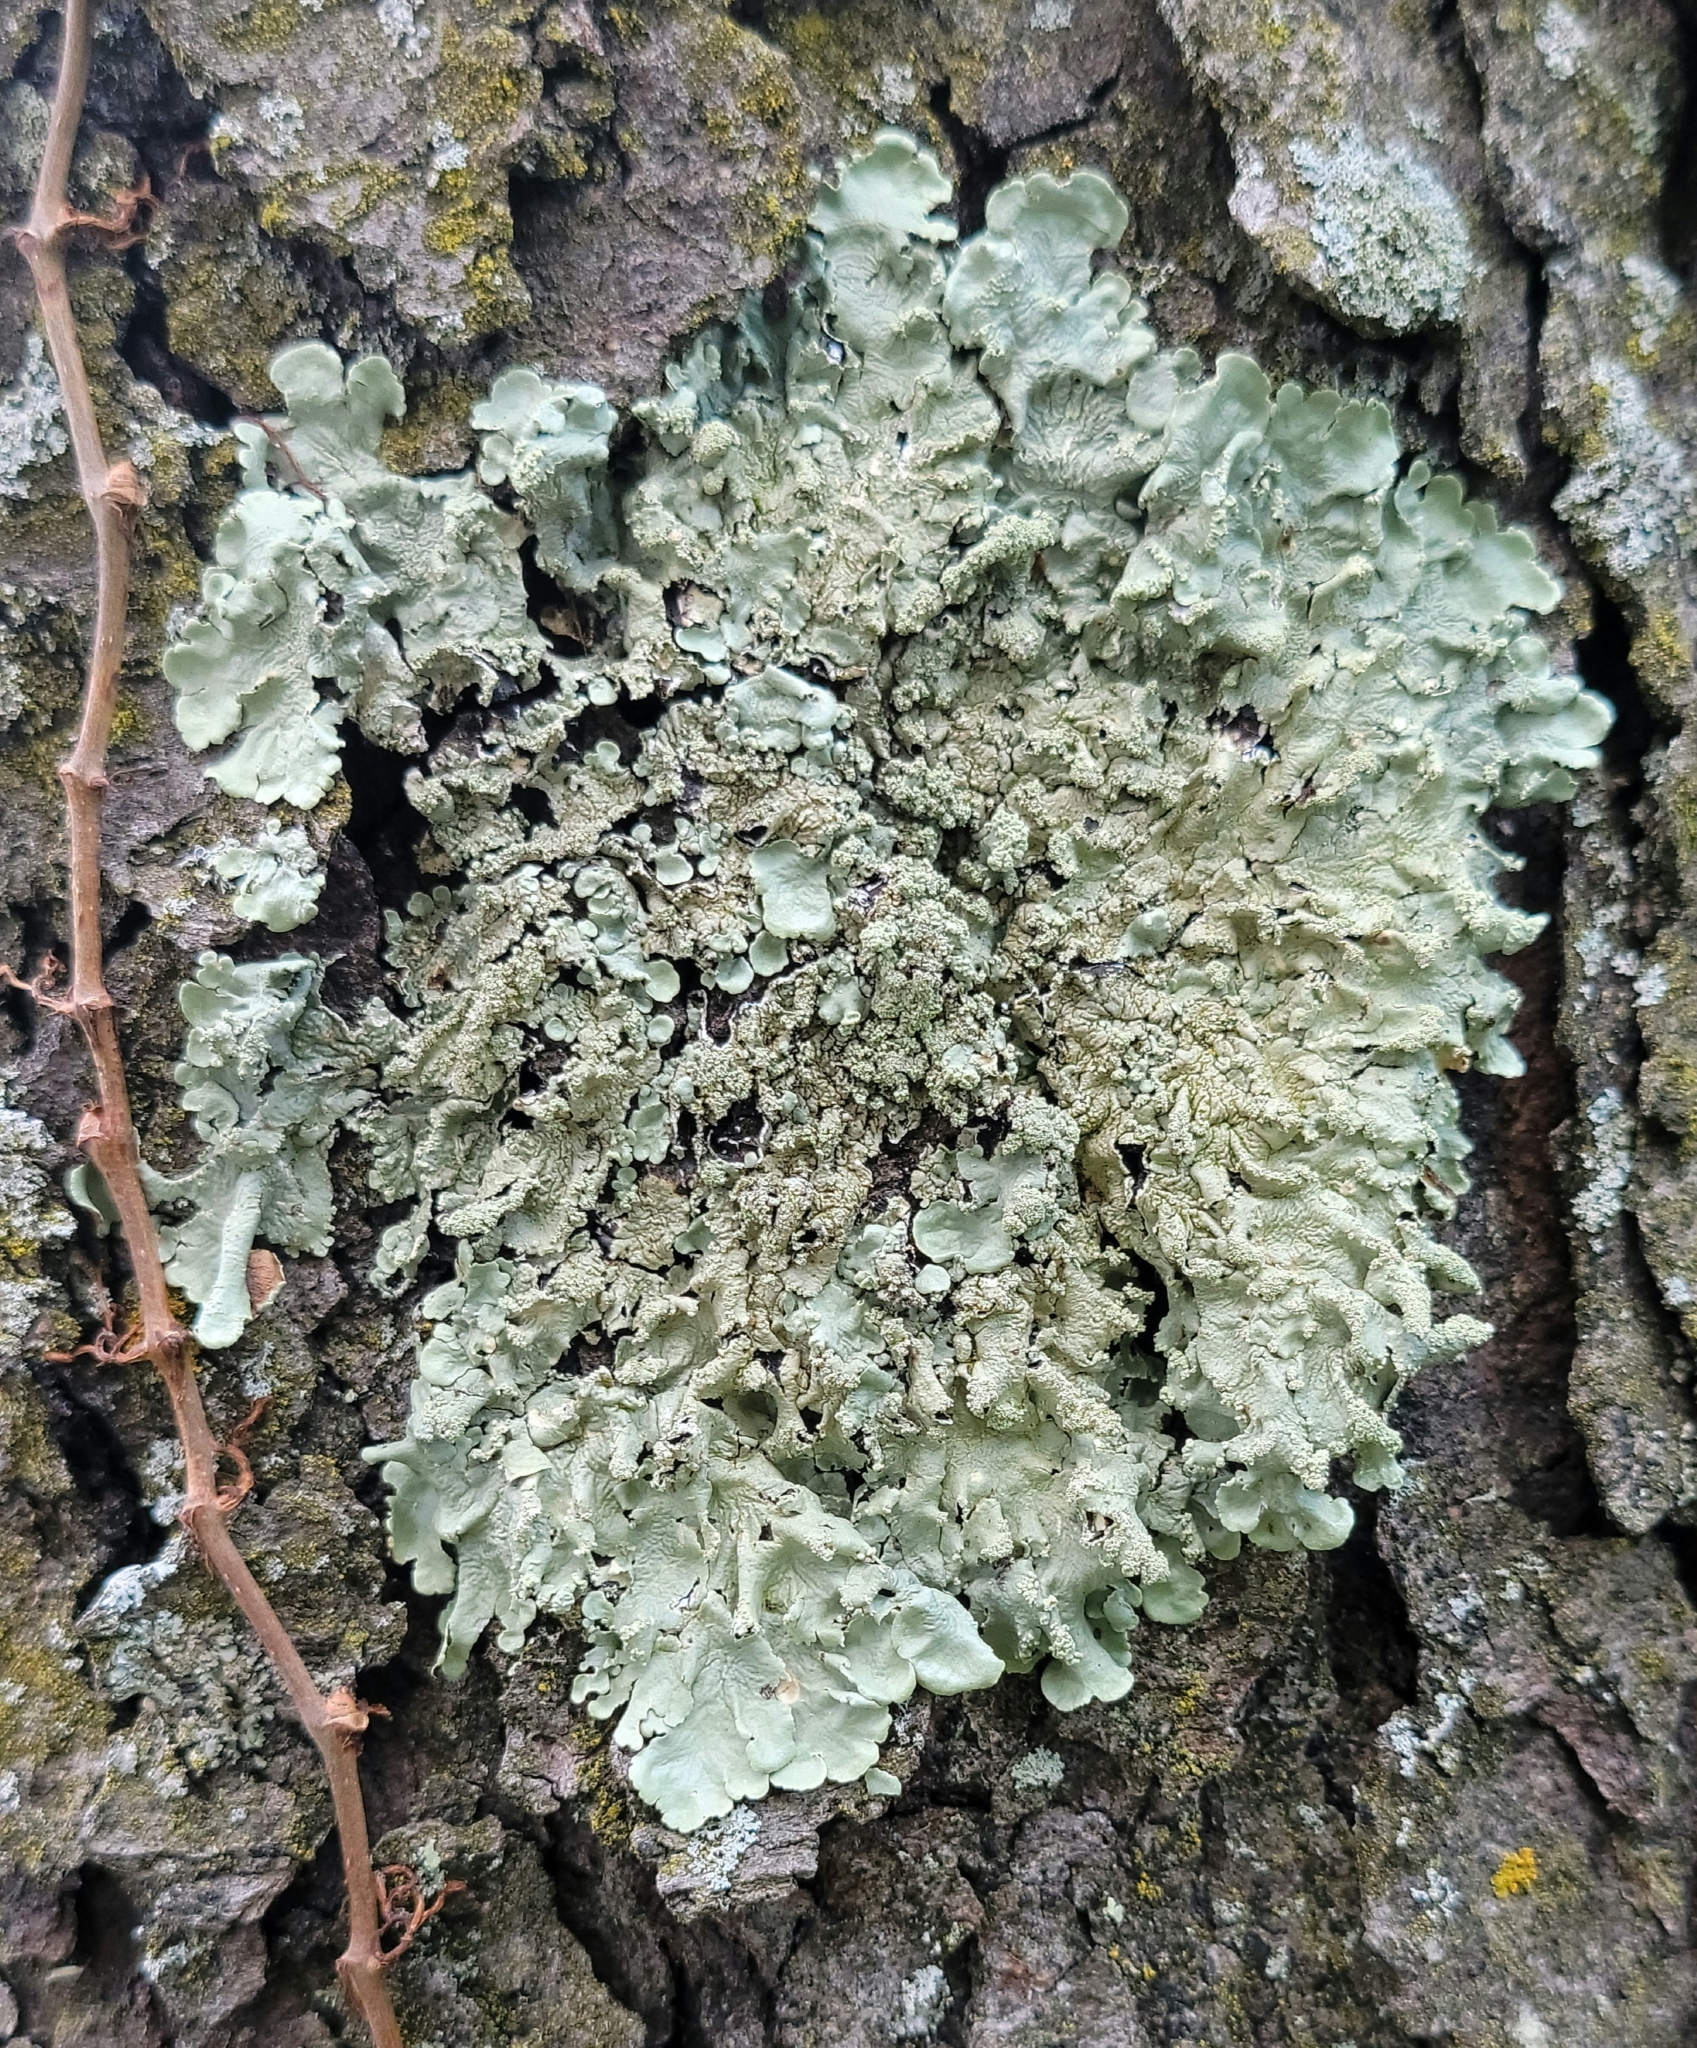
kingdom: Fungi
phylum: Ascomycota
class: Lecanoromycetes
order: Lecanorales
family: Parmeliaceae
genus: Flavoparmelia
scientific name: Flavoparmelia caperata
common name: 40-mile per hour lichen
